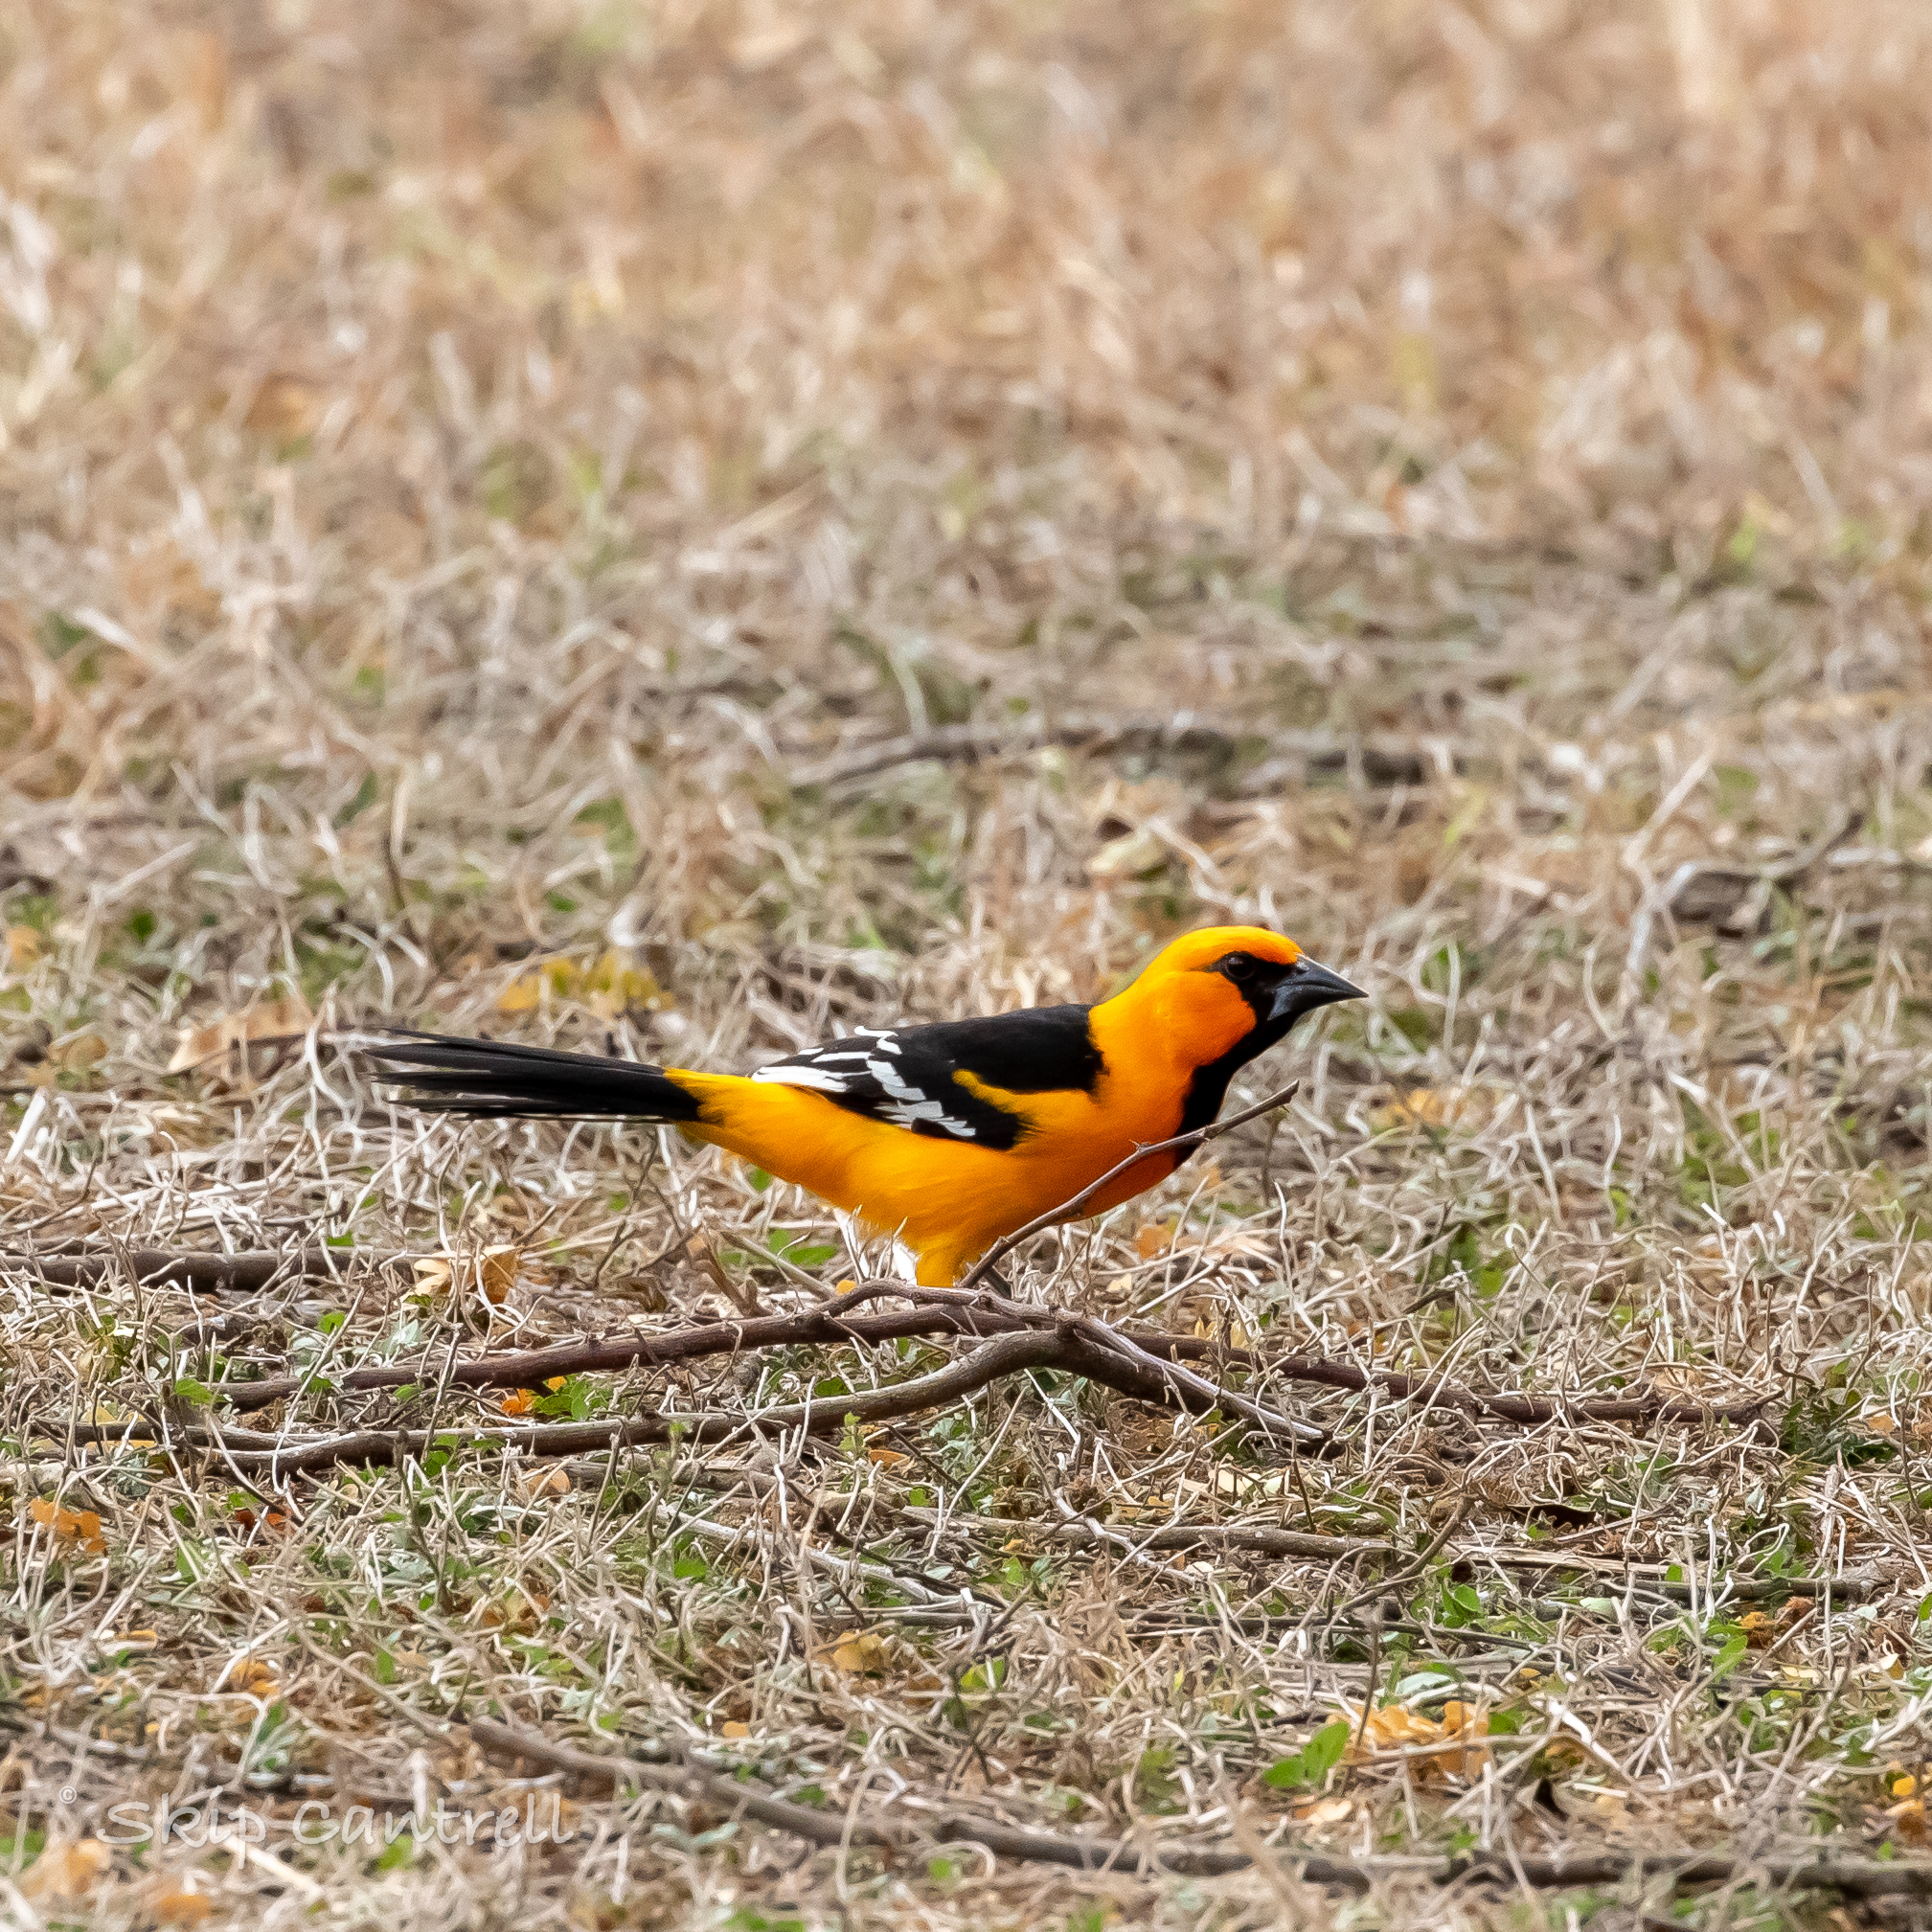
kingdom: Animalia
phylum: Chordata
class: Aves
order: Passeriformes
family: Icteridae
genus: Icterus
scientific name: Icterus gularis
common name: Altamira oriole
